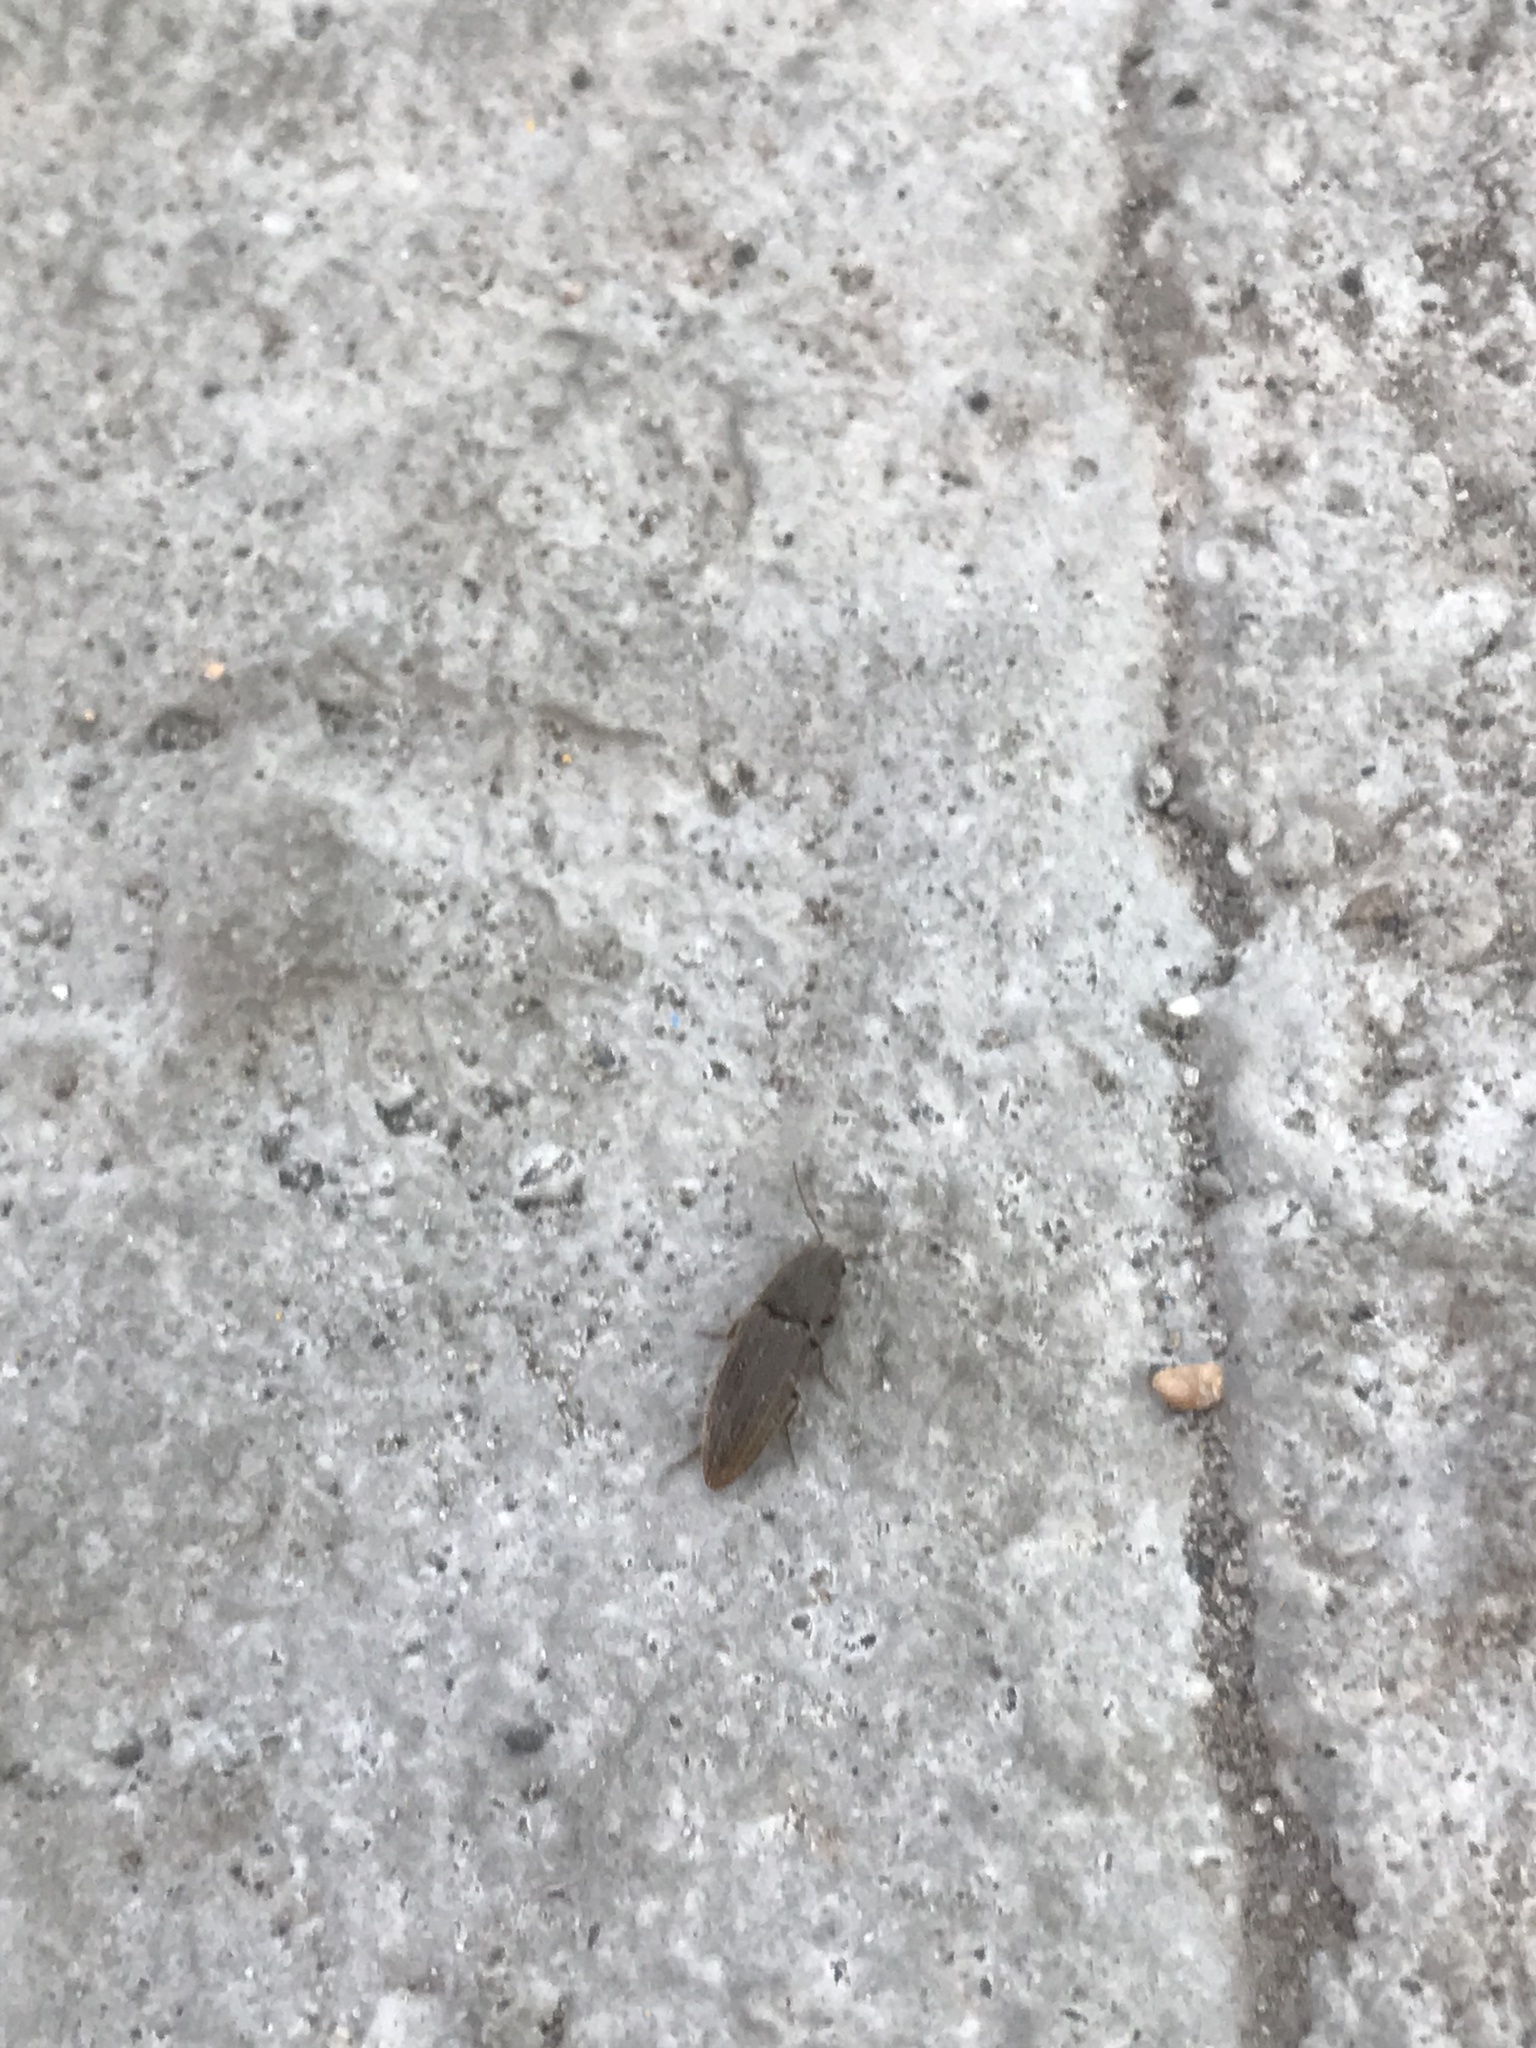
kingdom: Animalia
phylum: Arthropoda
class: Insecta
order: Coleoptera
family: Elateridae
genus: Agriotes
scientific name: Agriotes lineatus
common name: Lined click beetle
